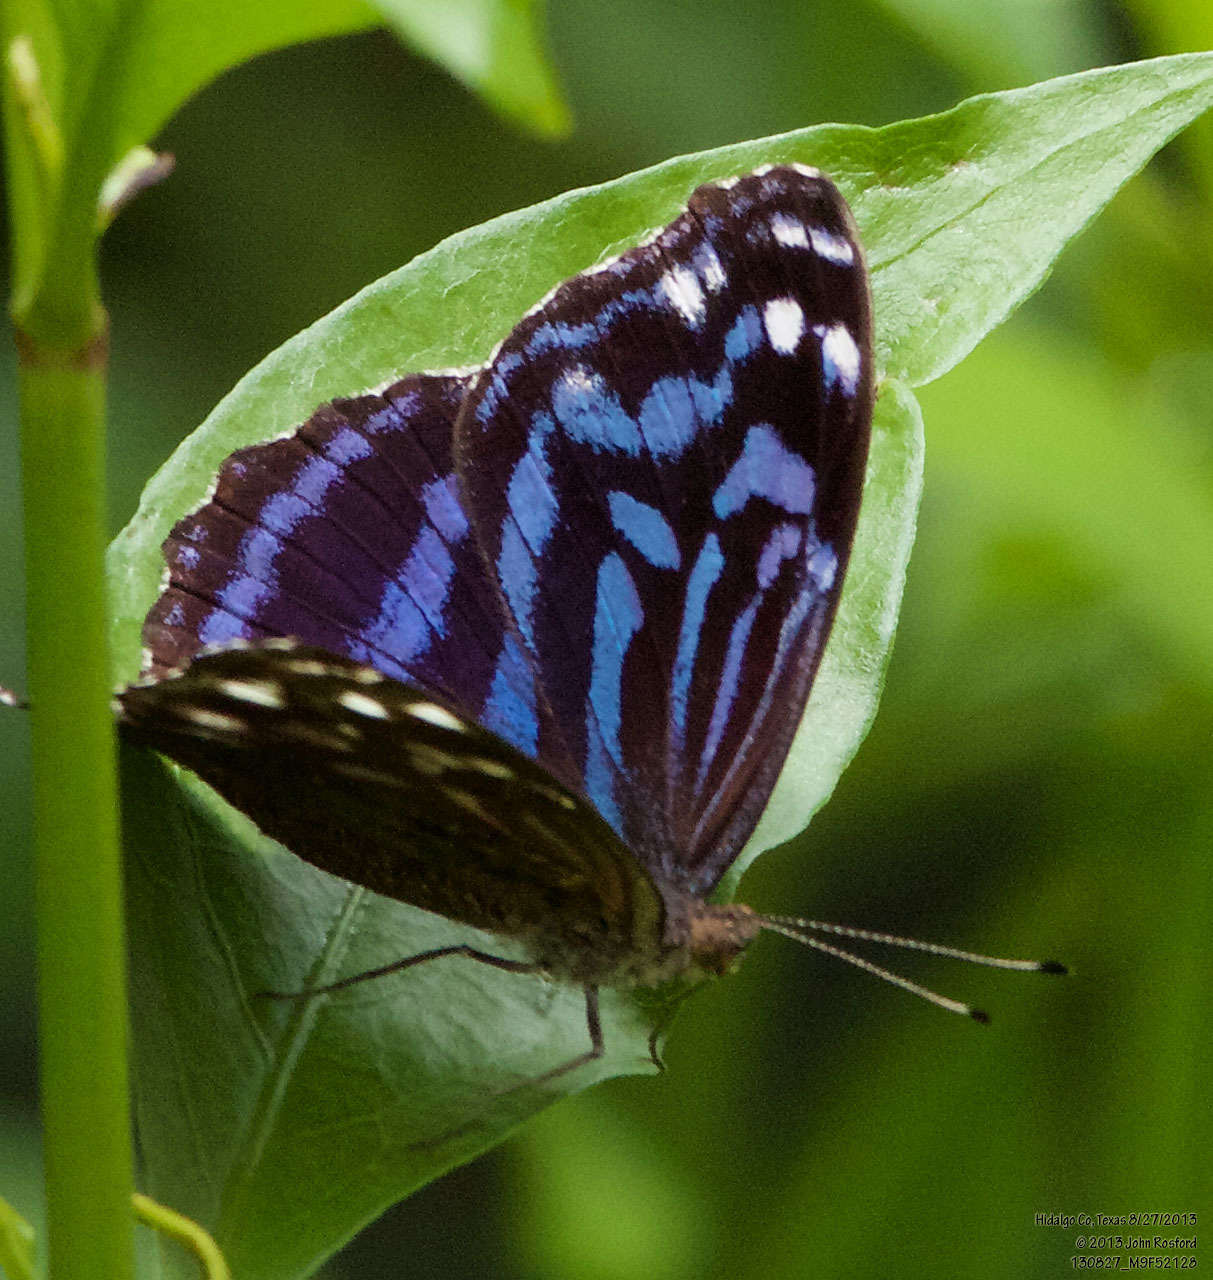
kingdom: Animalia
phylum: Arthropoda
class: Insecta
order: Lepidoptera
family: Nymphalidae
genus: Myscelia
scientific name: Myscelia ethusa
